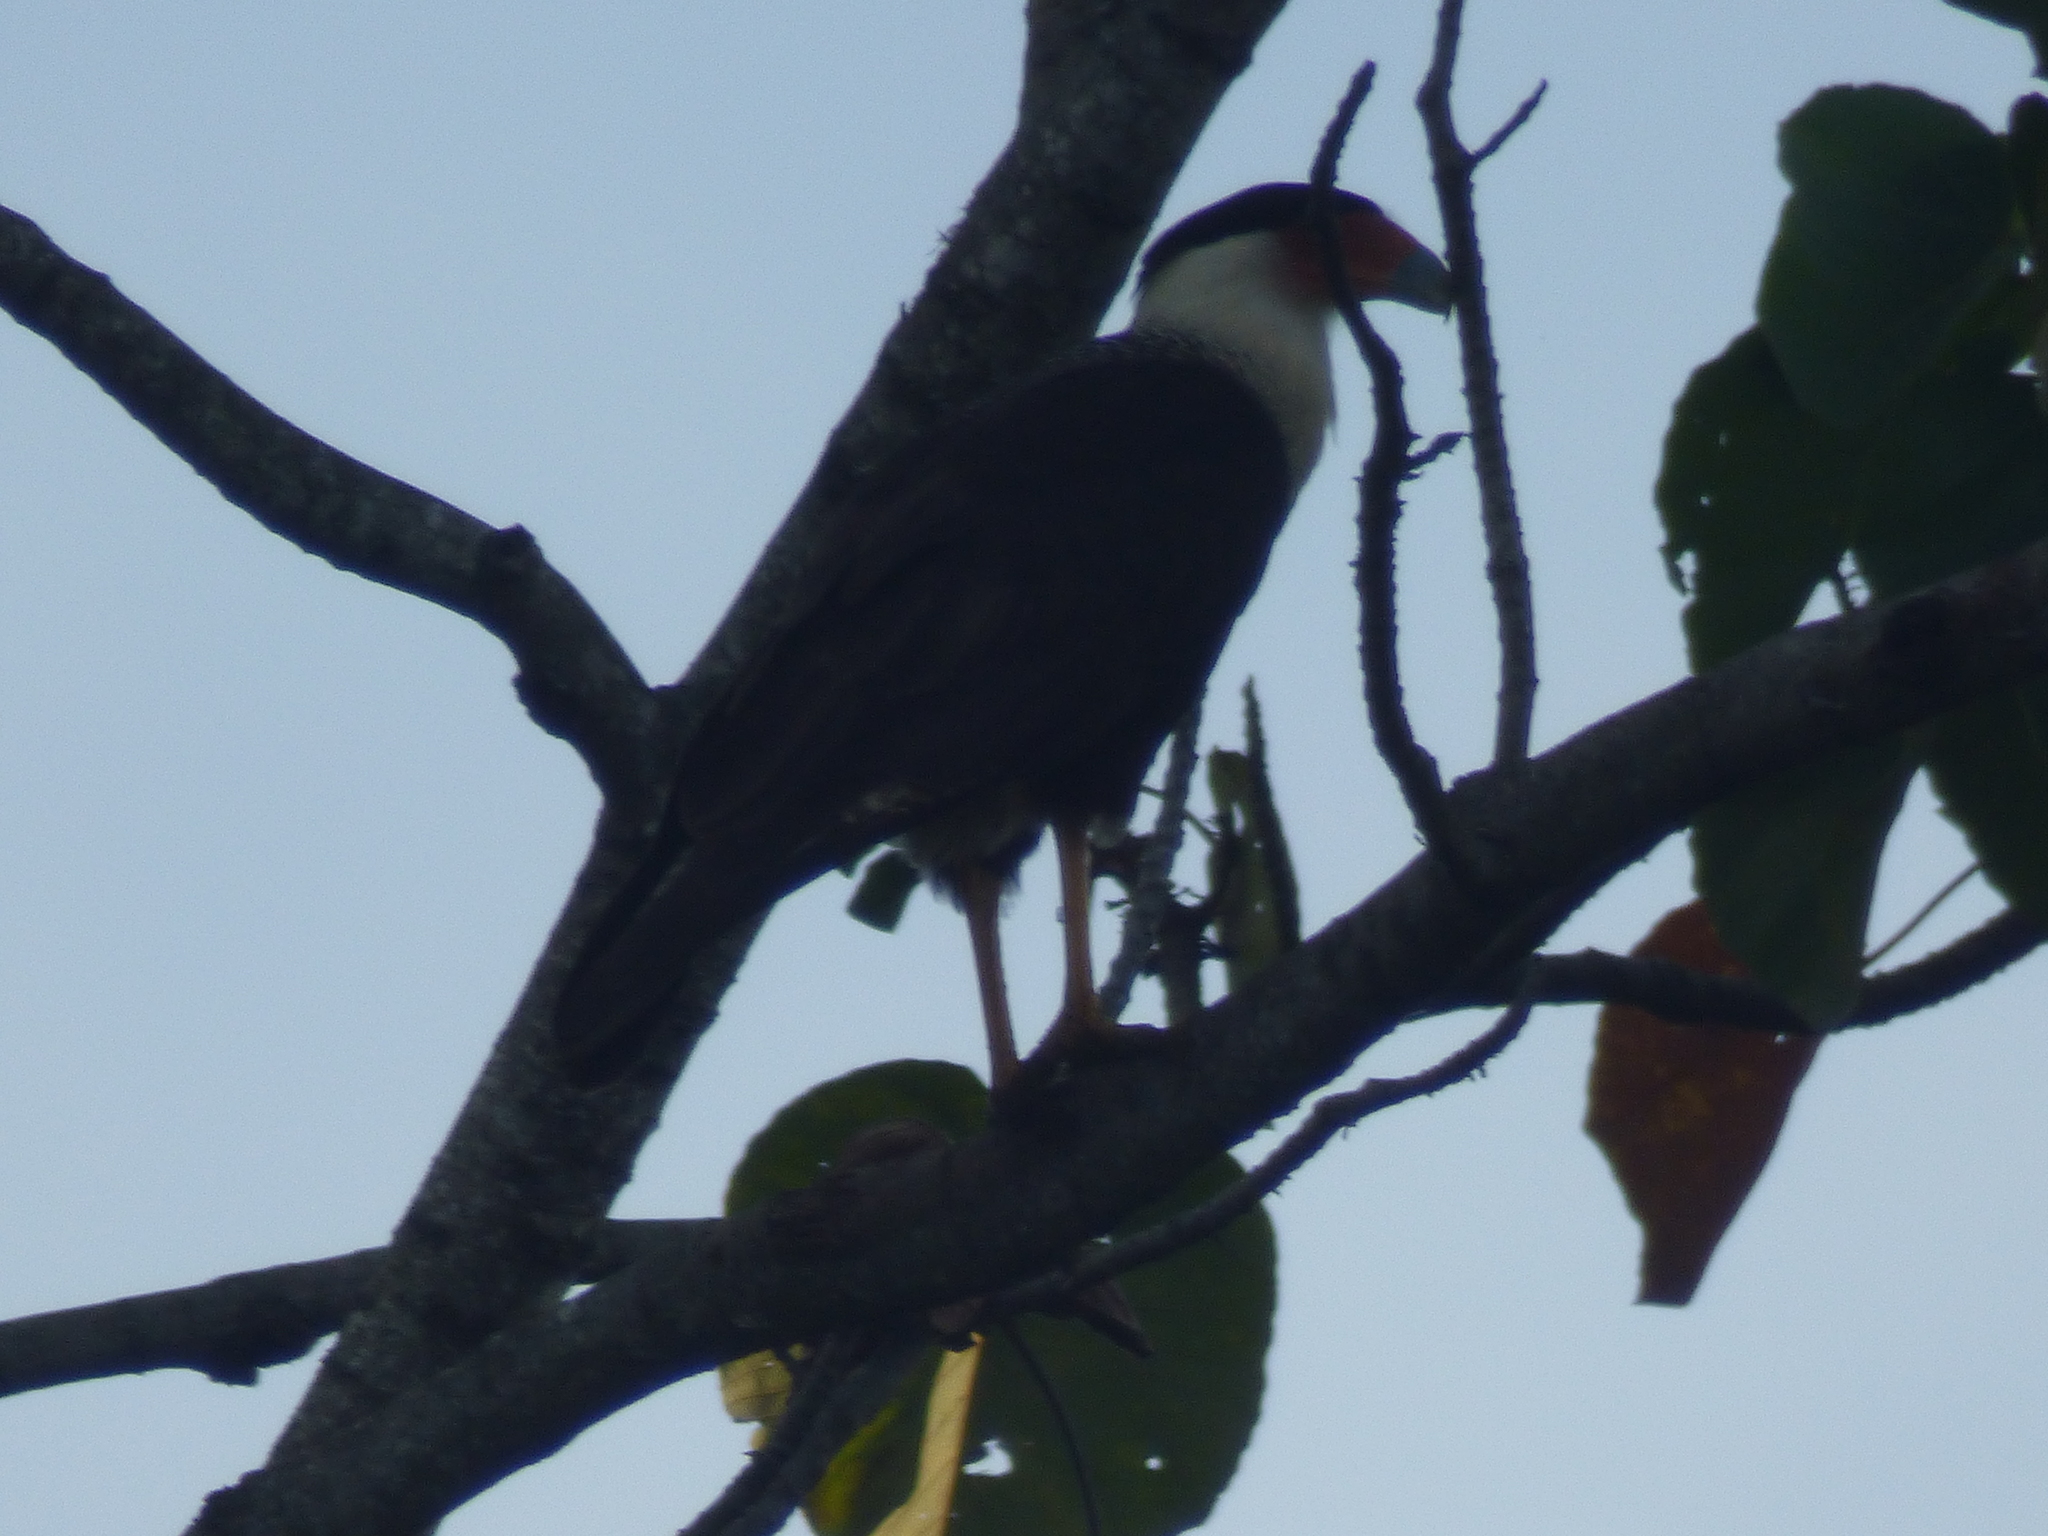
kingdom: Animalia
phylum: Chordata
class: Aves
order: Falconiformes
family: Falconidae
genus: Caracara
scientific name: Caracara plancus
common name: Southern caracara
